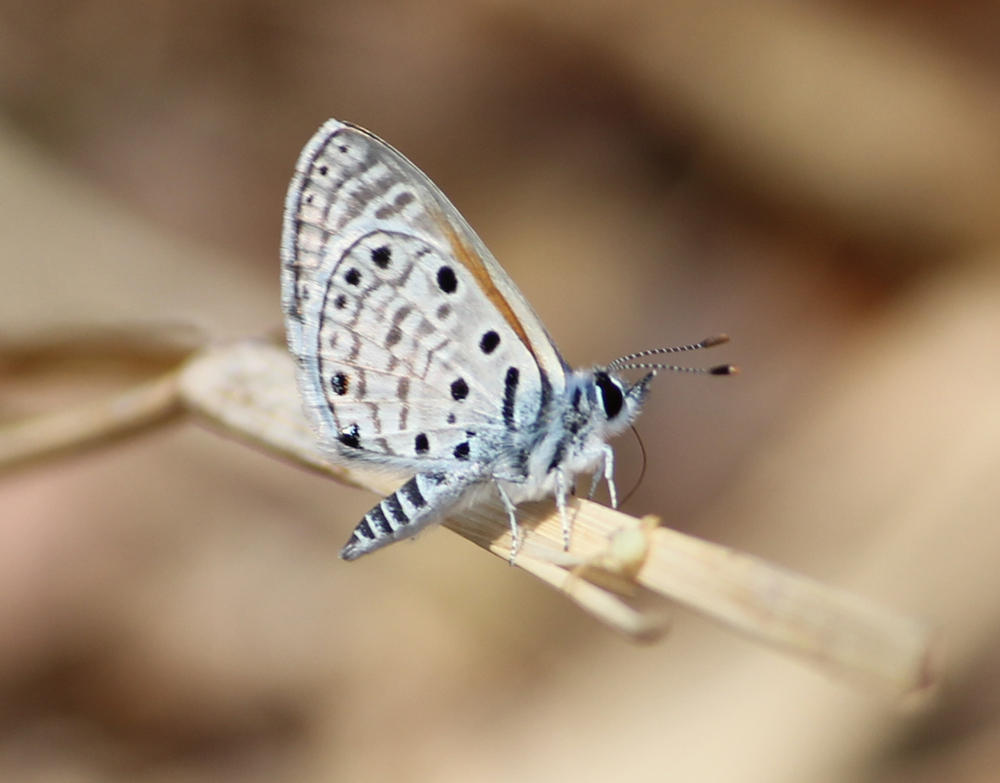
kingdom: Animalia
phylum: Arthropoda
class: Insecta
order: Lepidoptera
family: Lycaenidae
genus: Azanus
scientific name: Azanus jesous
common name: African babul blue
